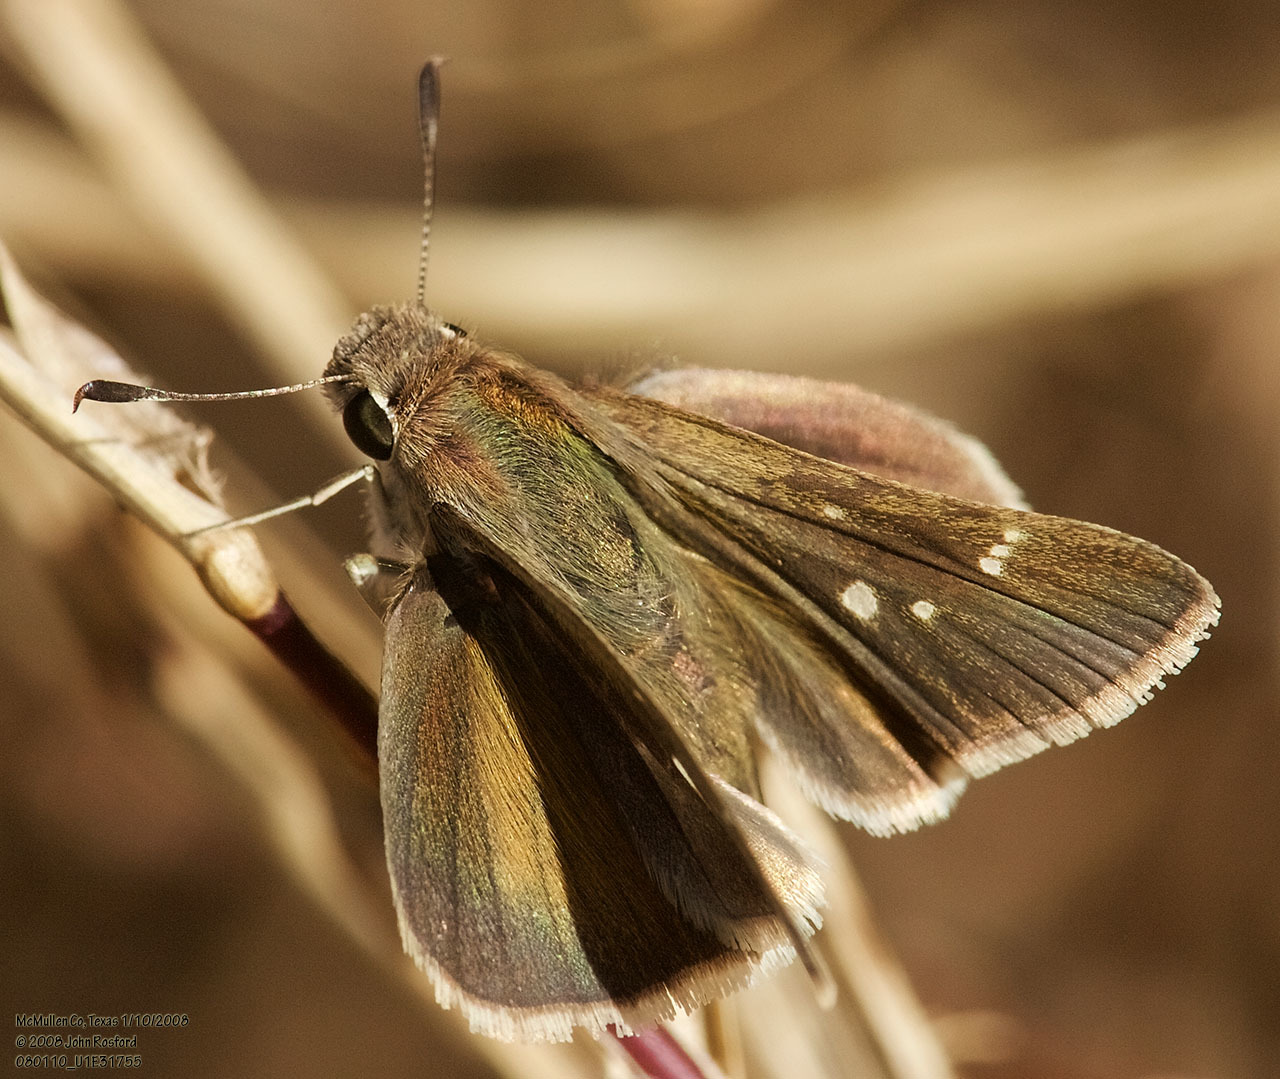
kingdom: Animalia
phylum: Arthropoda
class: Insecta
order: Lepidoptera
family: Hesperiidae
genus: Lerodea
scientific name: Lerodea eufala
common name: Eufala skipper
